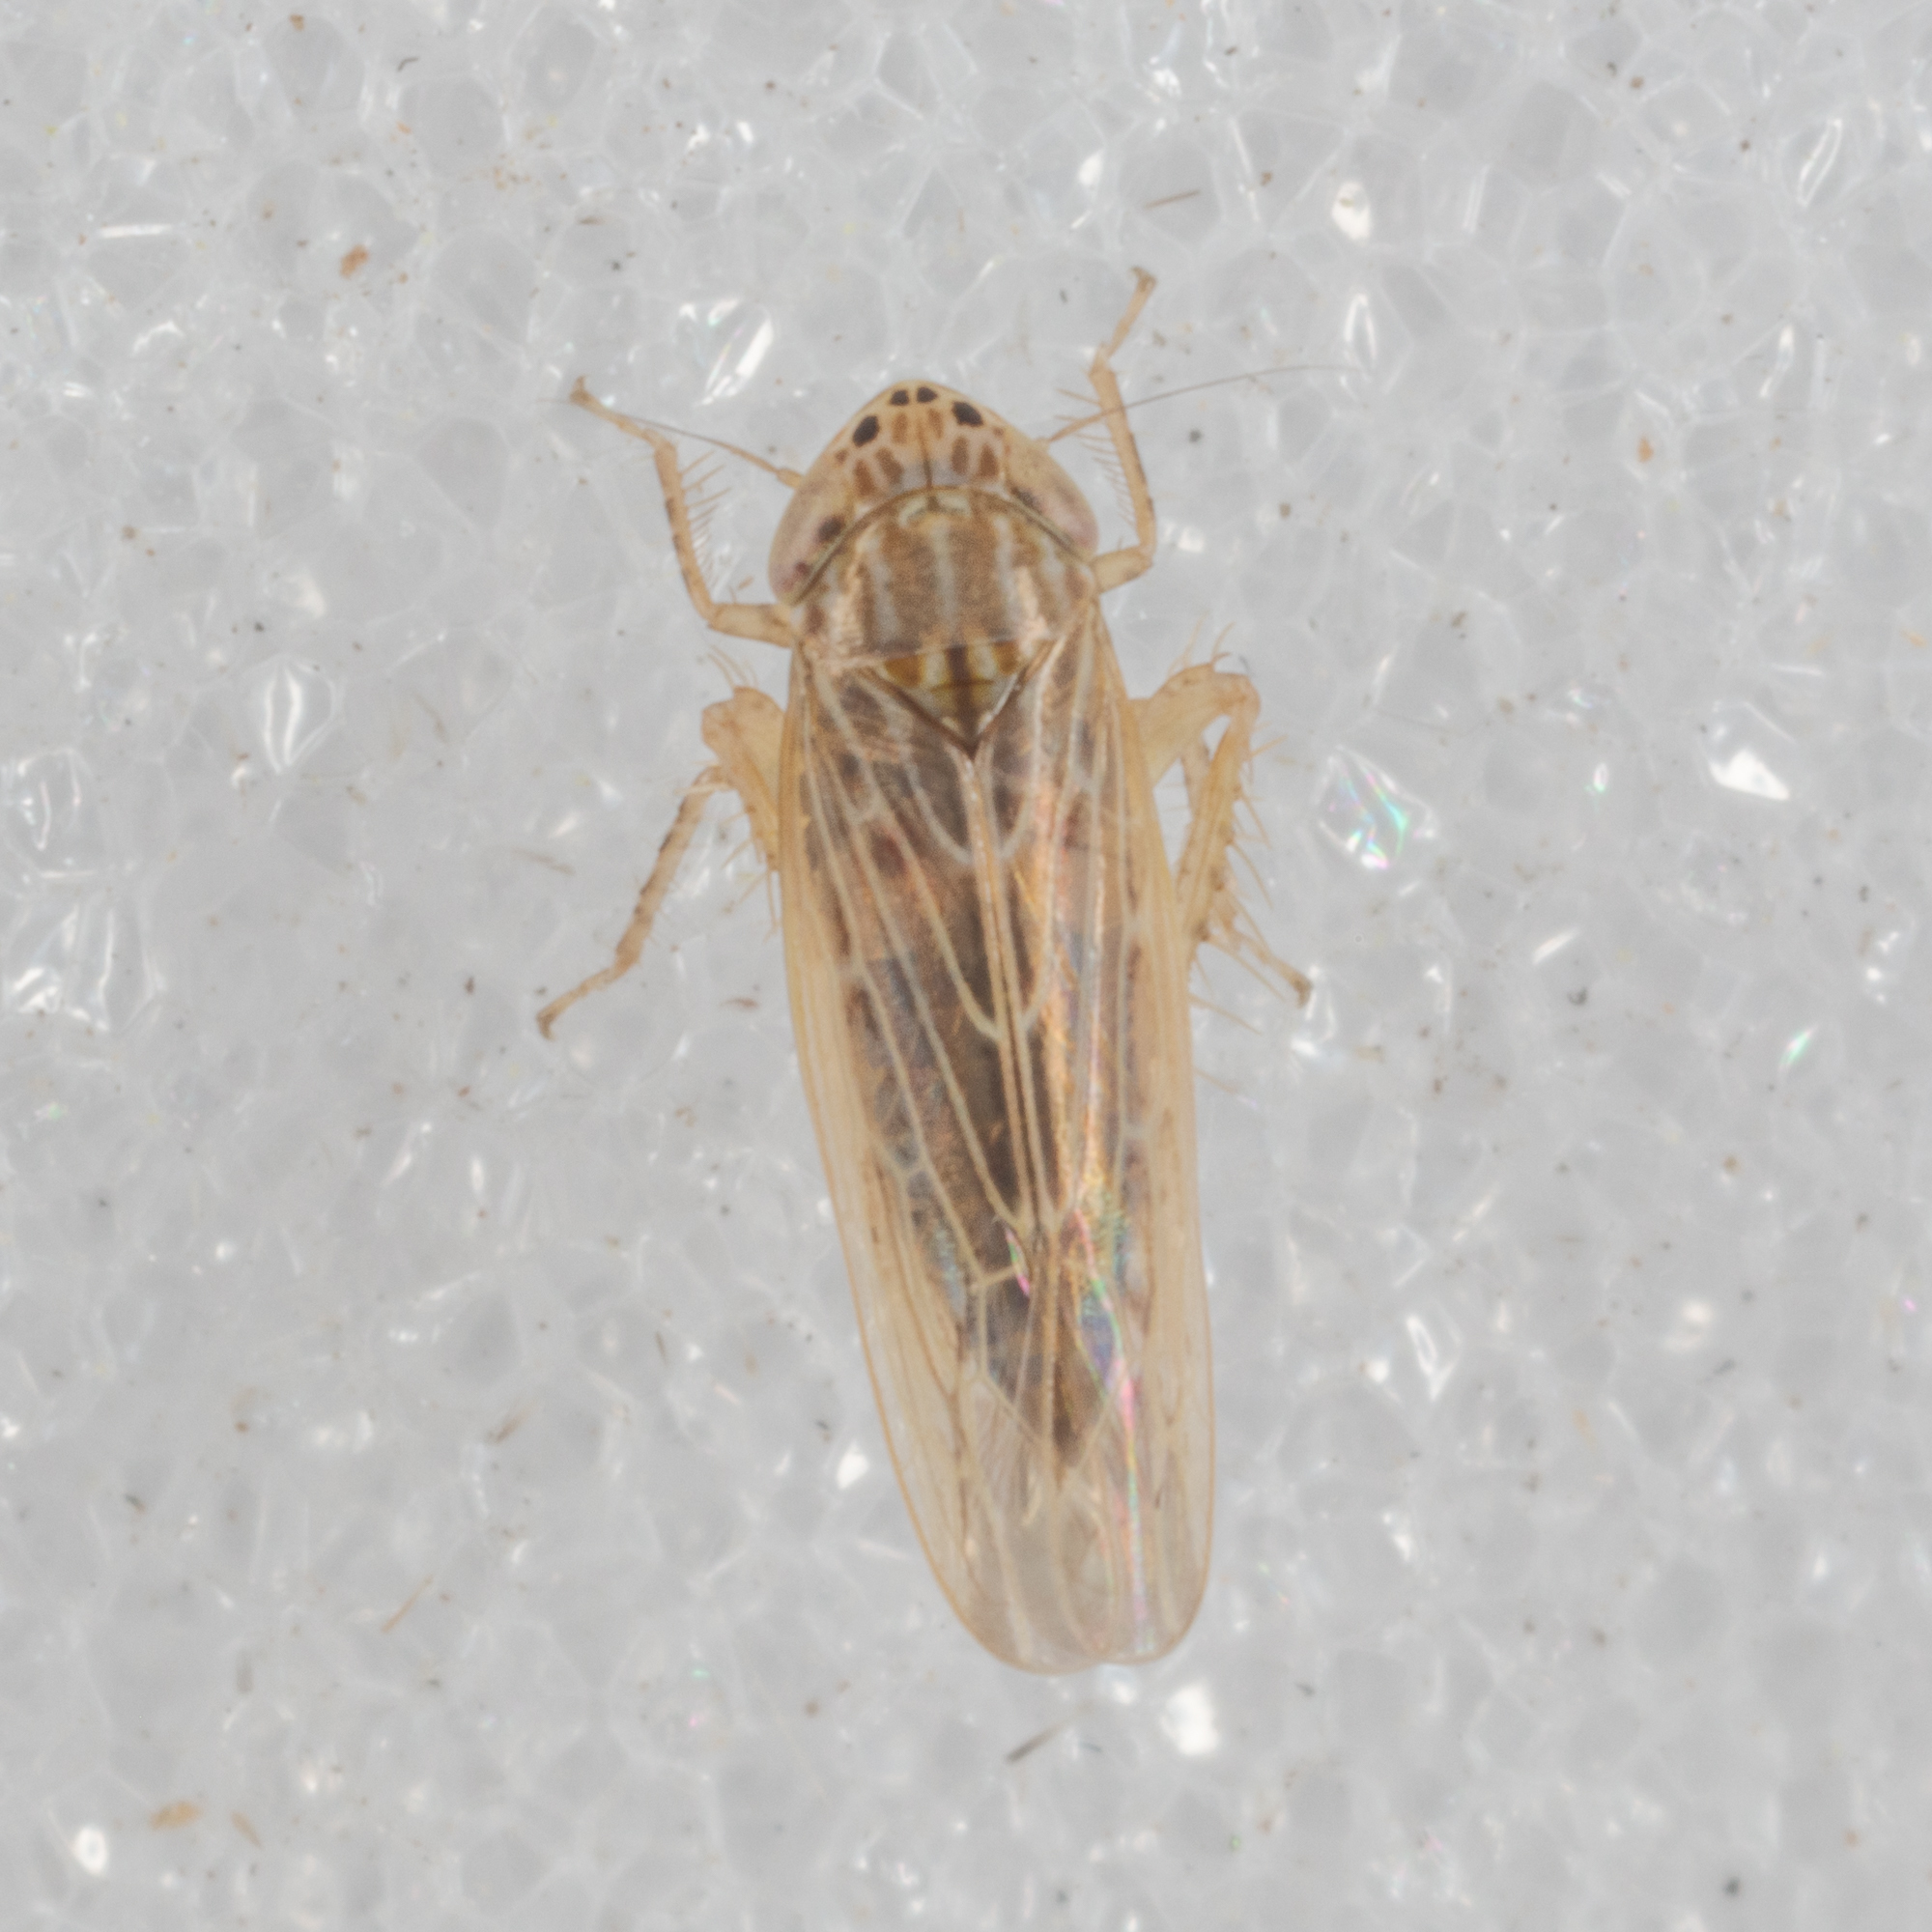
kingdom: Animalia
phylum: Arthropoda
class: Insecta
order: Hemiptera
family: Cicadellidae
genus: Graminella
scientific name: Graminella sonora
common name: Lesser lawn leafhopper
